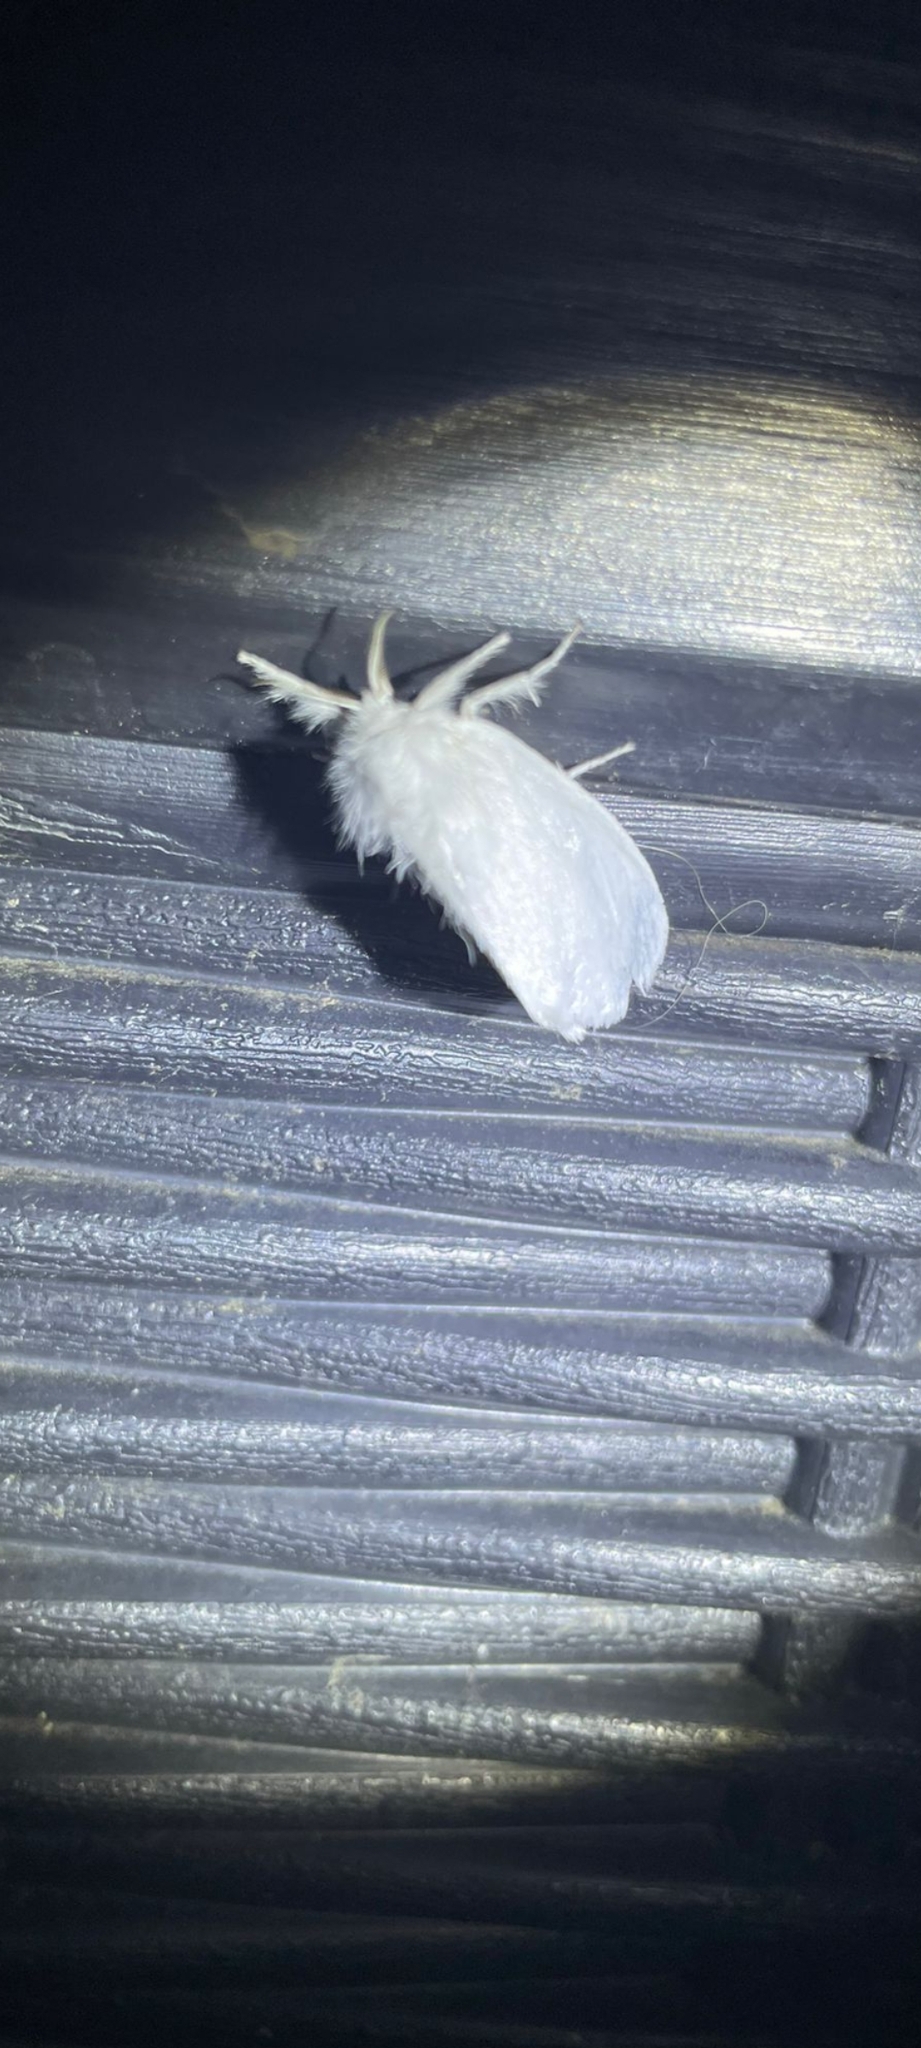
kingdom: Animalia
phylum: Arthropoda
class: Insecta
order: Lepidoptera
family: Erebidae
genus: Sphrageidus
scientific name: Sphrageidus similis
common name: Yellow-tail
